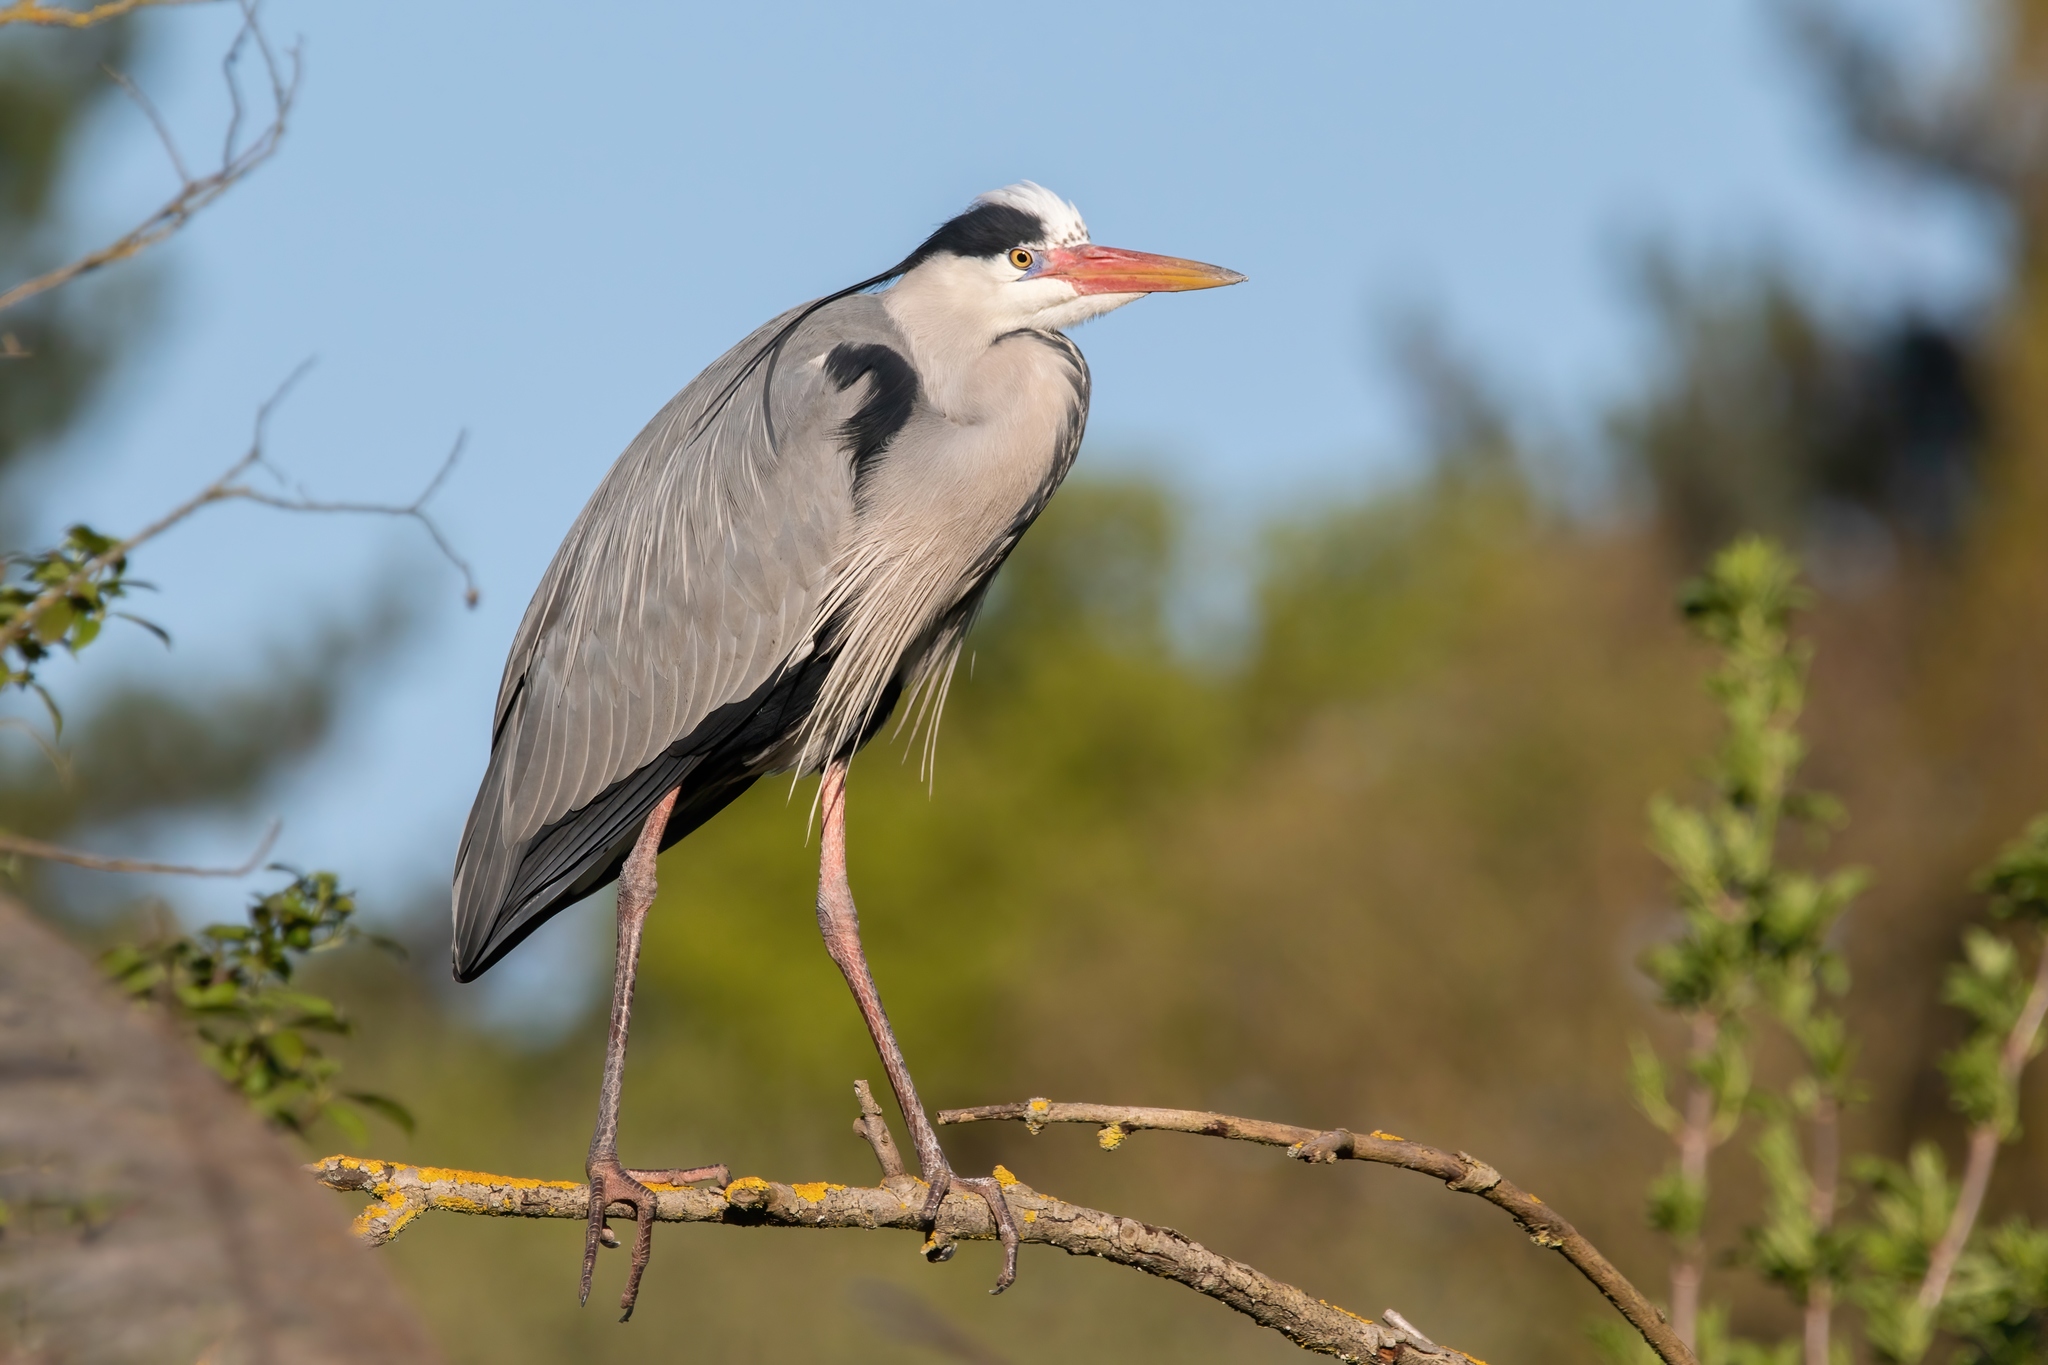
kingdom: Animalia
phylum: Chordata
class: Aves
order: Pelecaniformes
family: Ardeidae
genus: Ardea
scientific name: Ardea cinerea
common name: Grey heron
